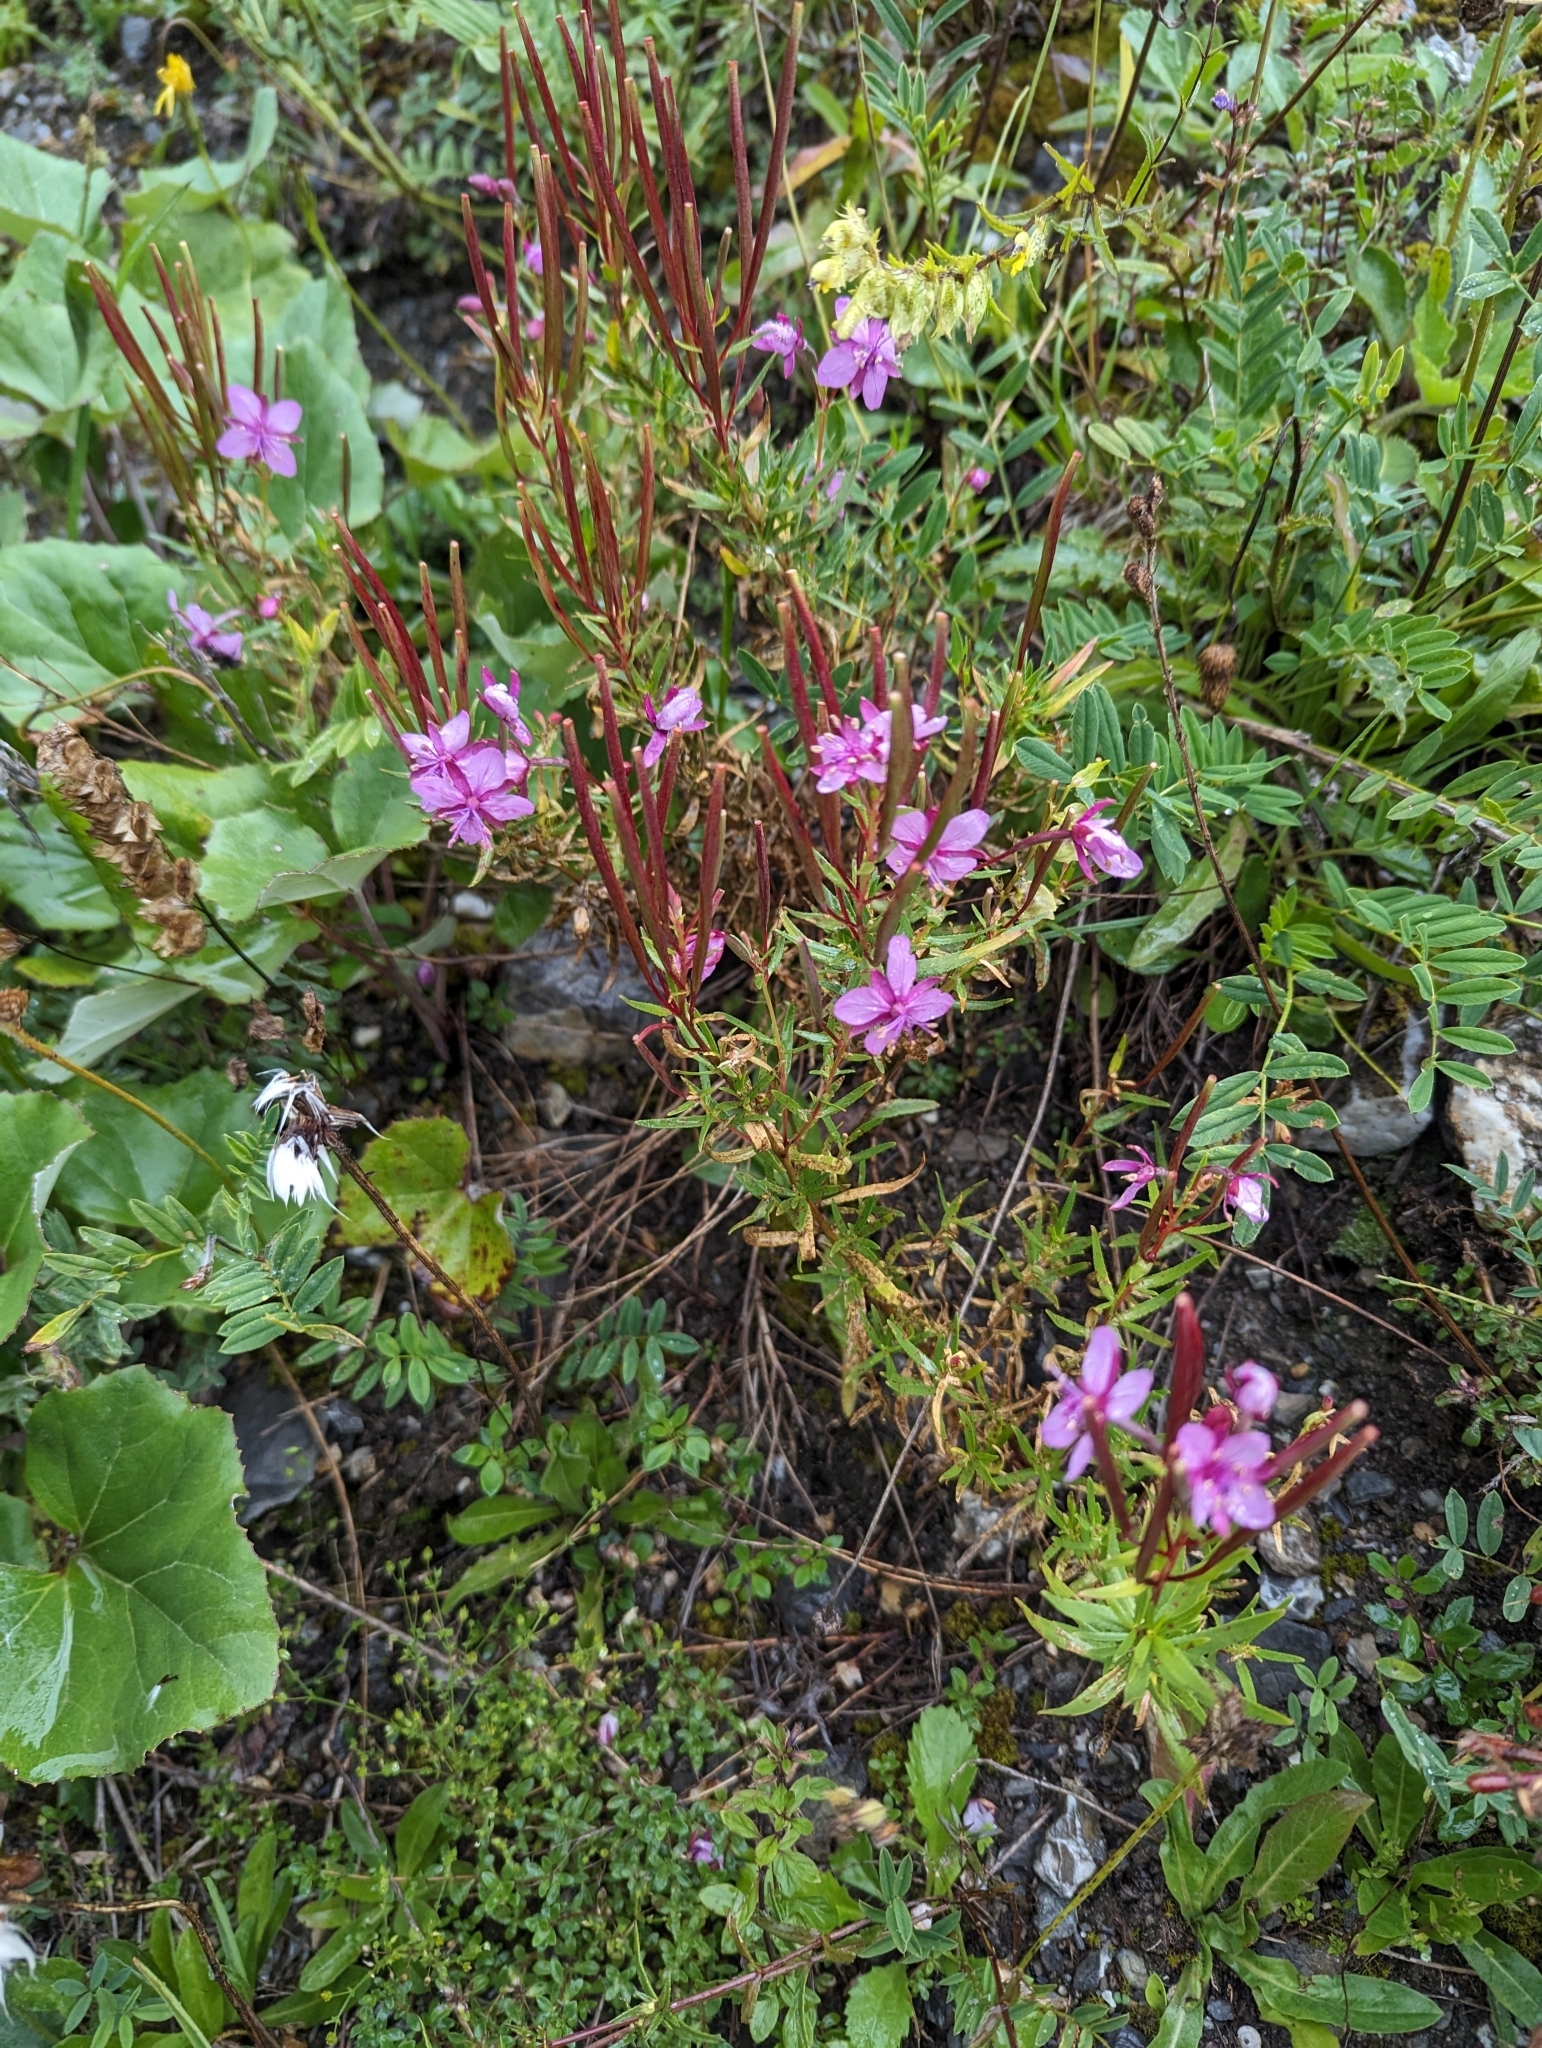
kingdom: Plantae
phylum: Tracheophyta
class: Magnoliopsida
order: Myrtales
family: Onagraceae
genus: Chamaenerion
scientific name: Chamaenerion fleischeri
